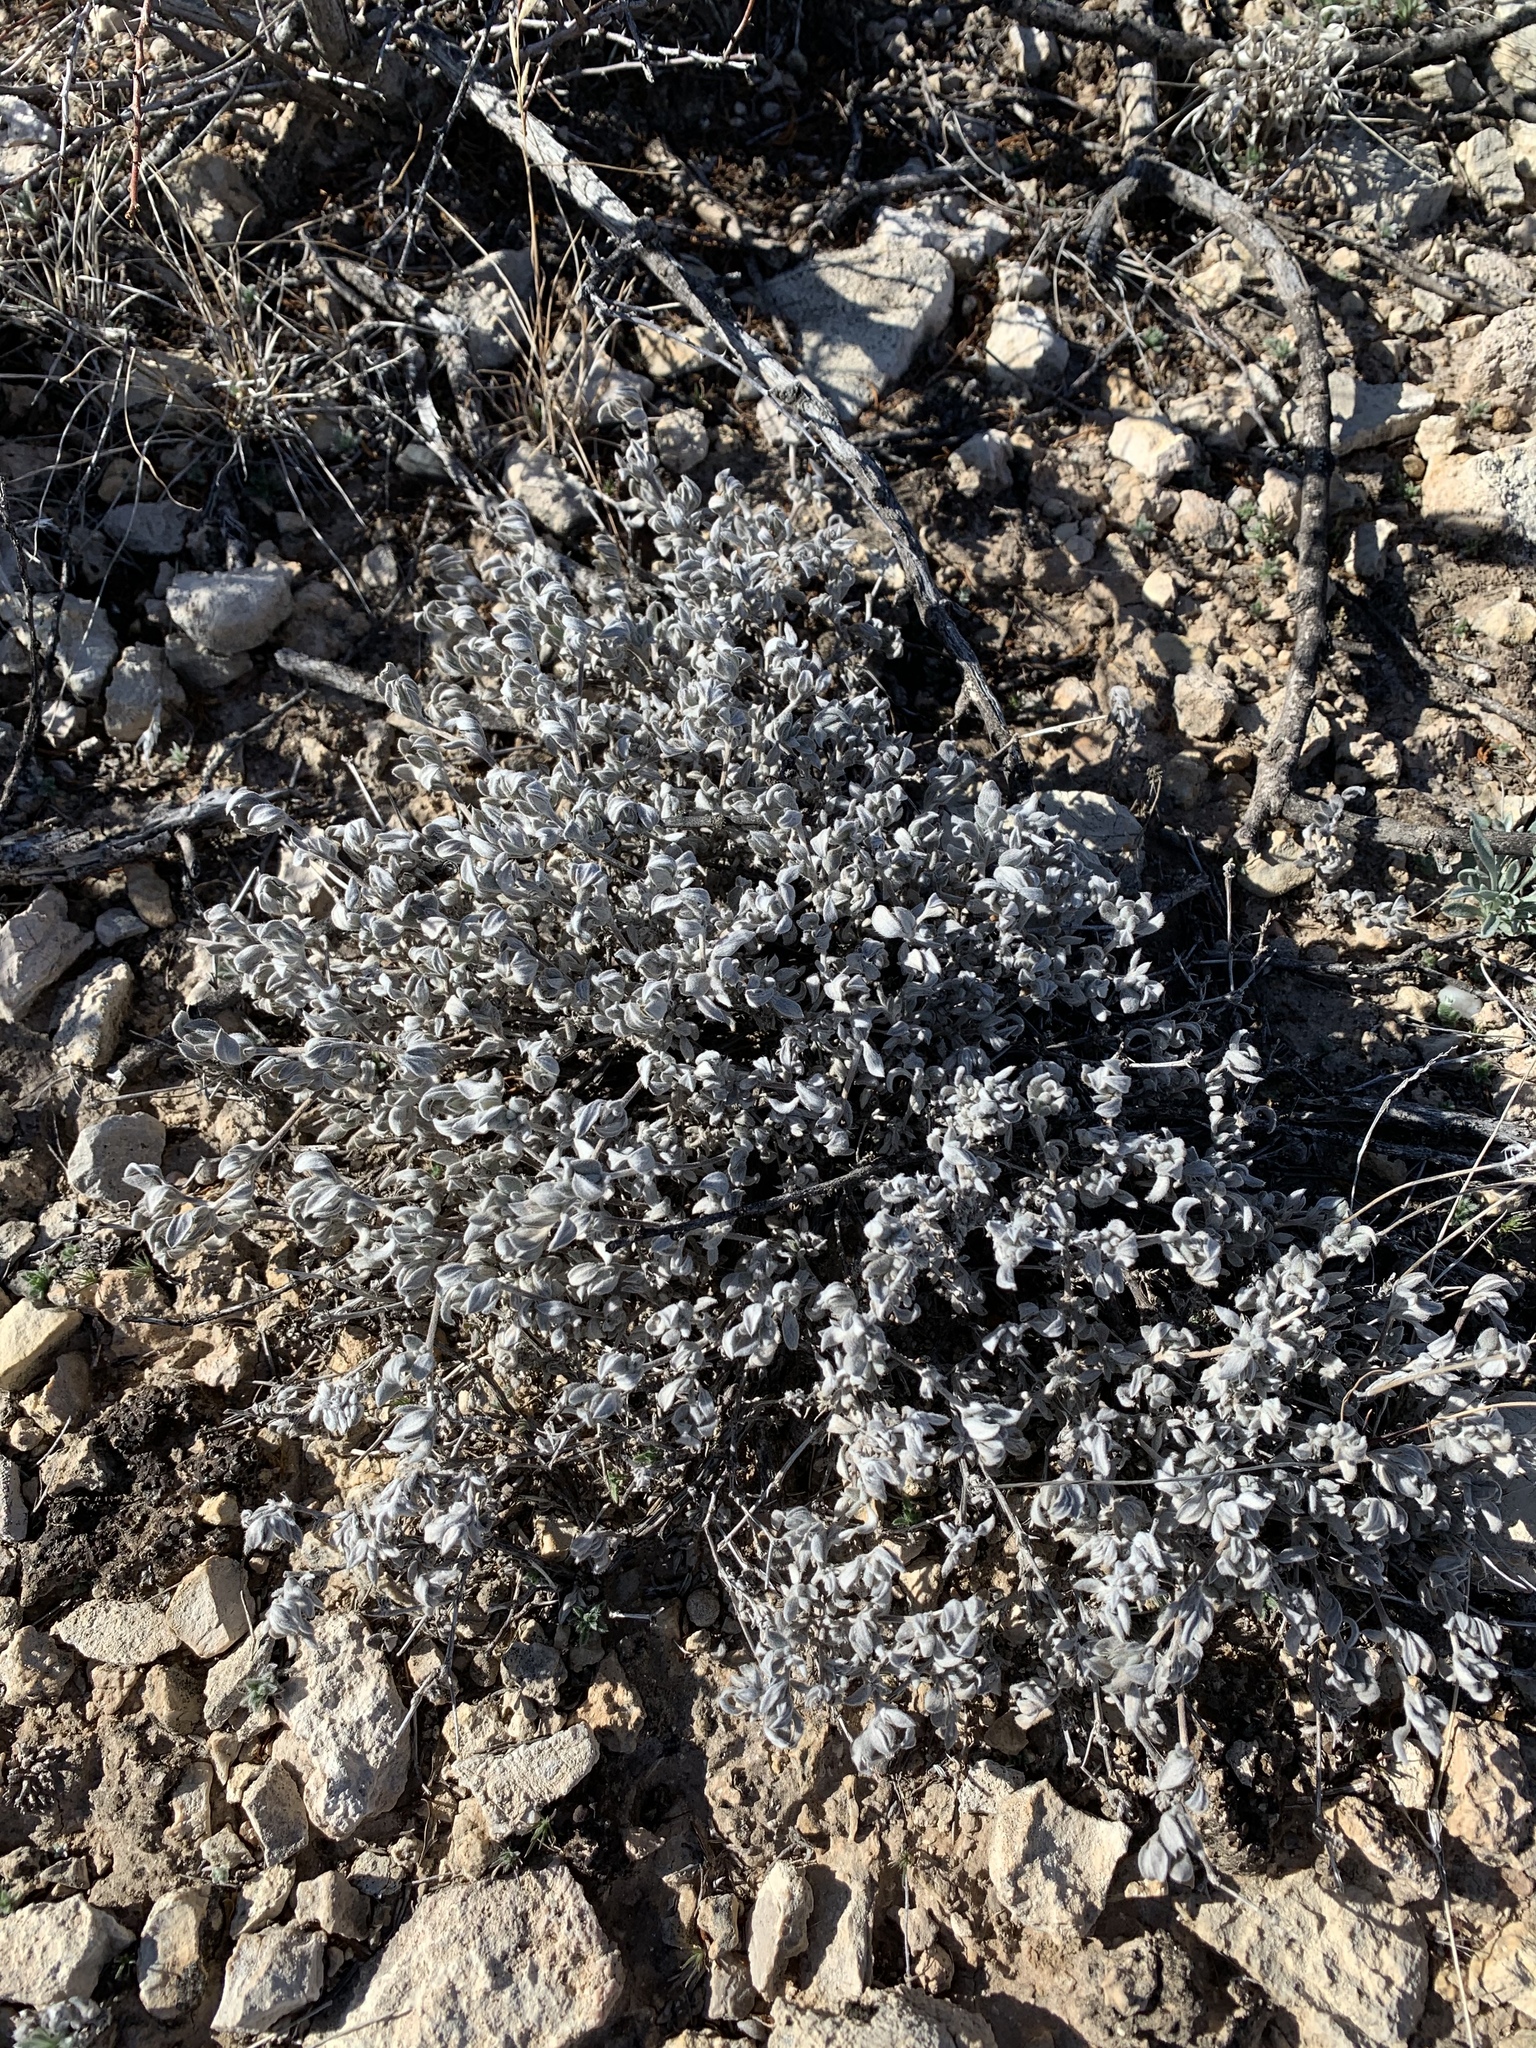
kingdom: Plantae
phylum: Tracheophyta
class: Magnoliopsida
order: Boraginales
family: Ehretiaceae
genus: Tiquilia
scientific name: Tiquilia canescens
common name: Hairy tiquilia
